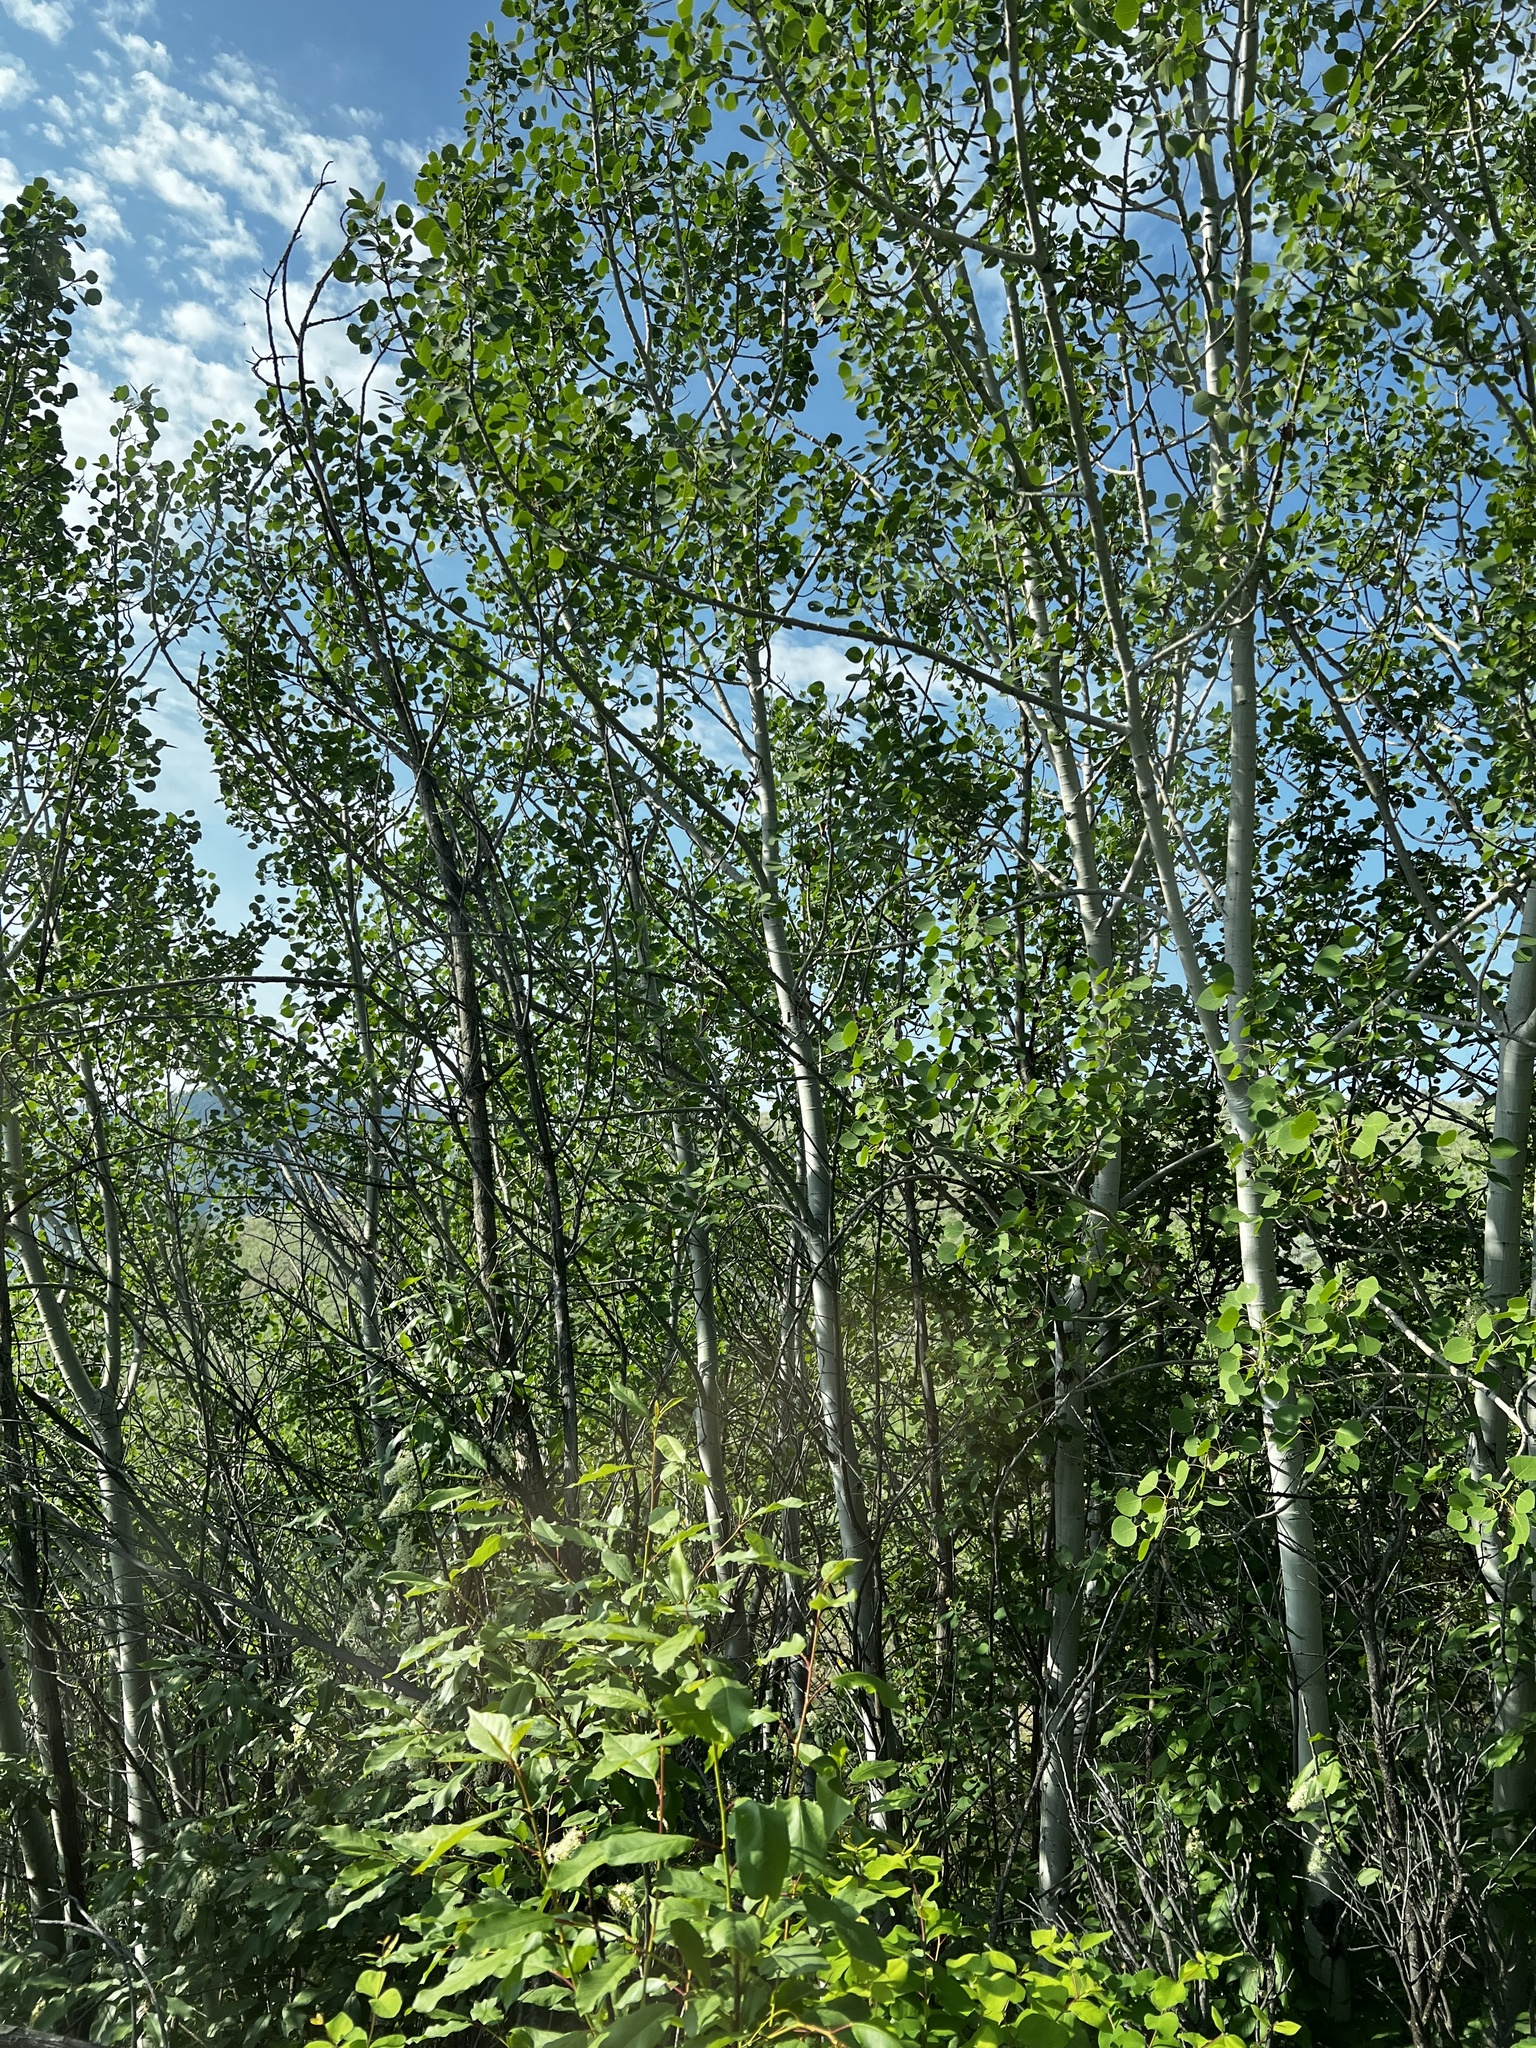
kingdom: Plantae
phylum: Tracheophyta
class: Magnoliopsida
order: Malpighiales
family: Salicaceae
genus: Populus
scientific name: Populus tremuloides
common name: Quaking aspen
